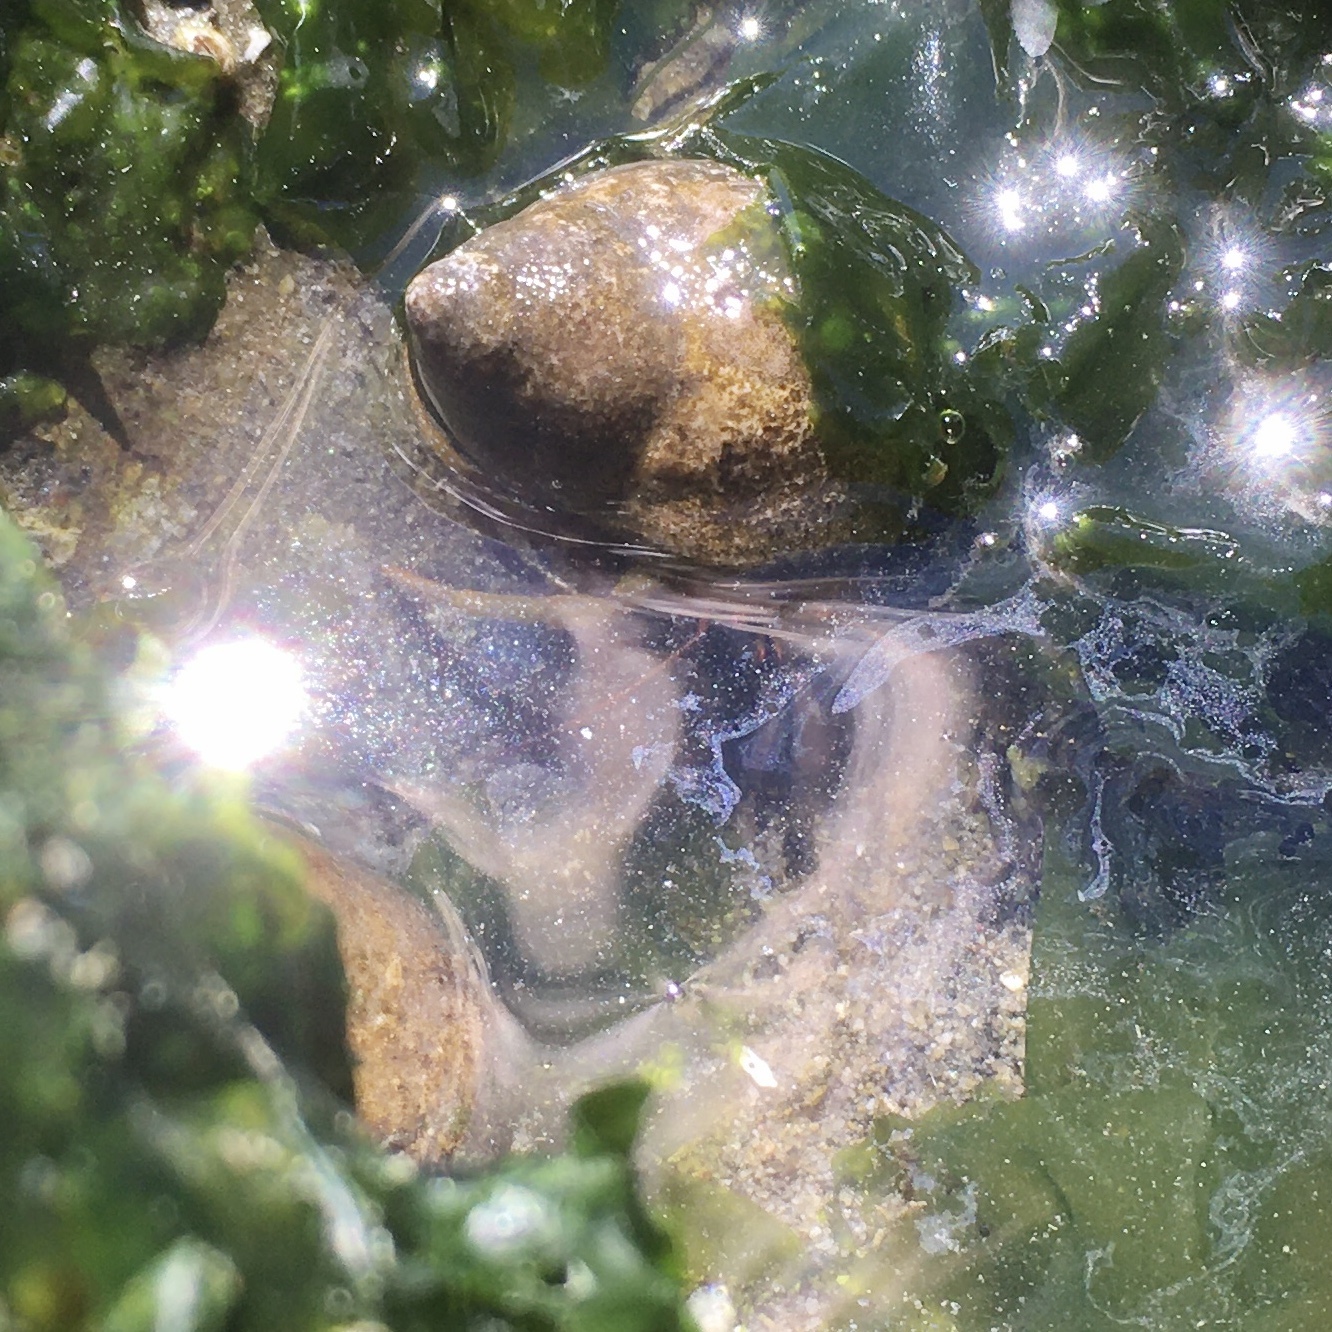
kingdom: Animalia
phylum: Arthropoda
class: Malacostraca
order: Decapoda
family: Paguridae
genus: Pagurus
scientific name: Pagurus granosimanus
